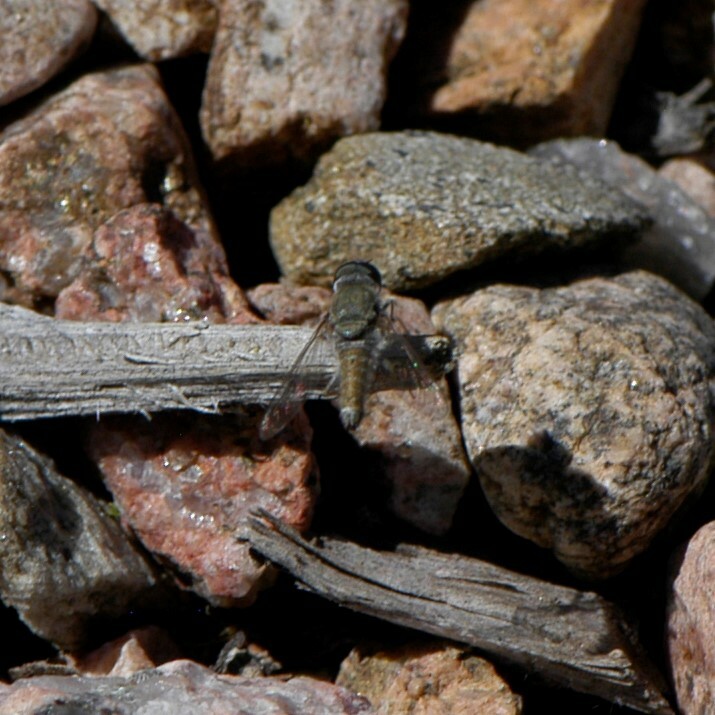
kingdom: Animalia
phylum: Arthropoda
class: Insecta
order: Diptera
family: Bombyliidae
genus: Aphoebantus
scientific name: Aphoebantus
